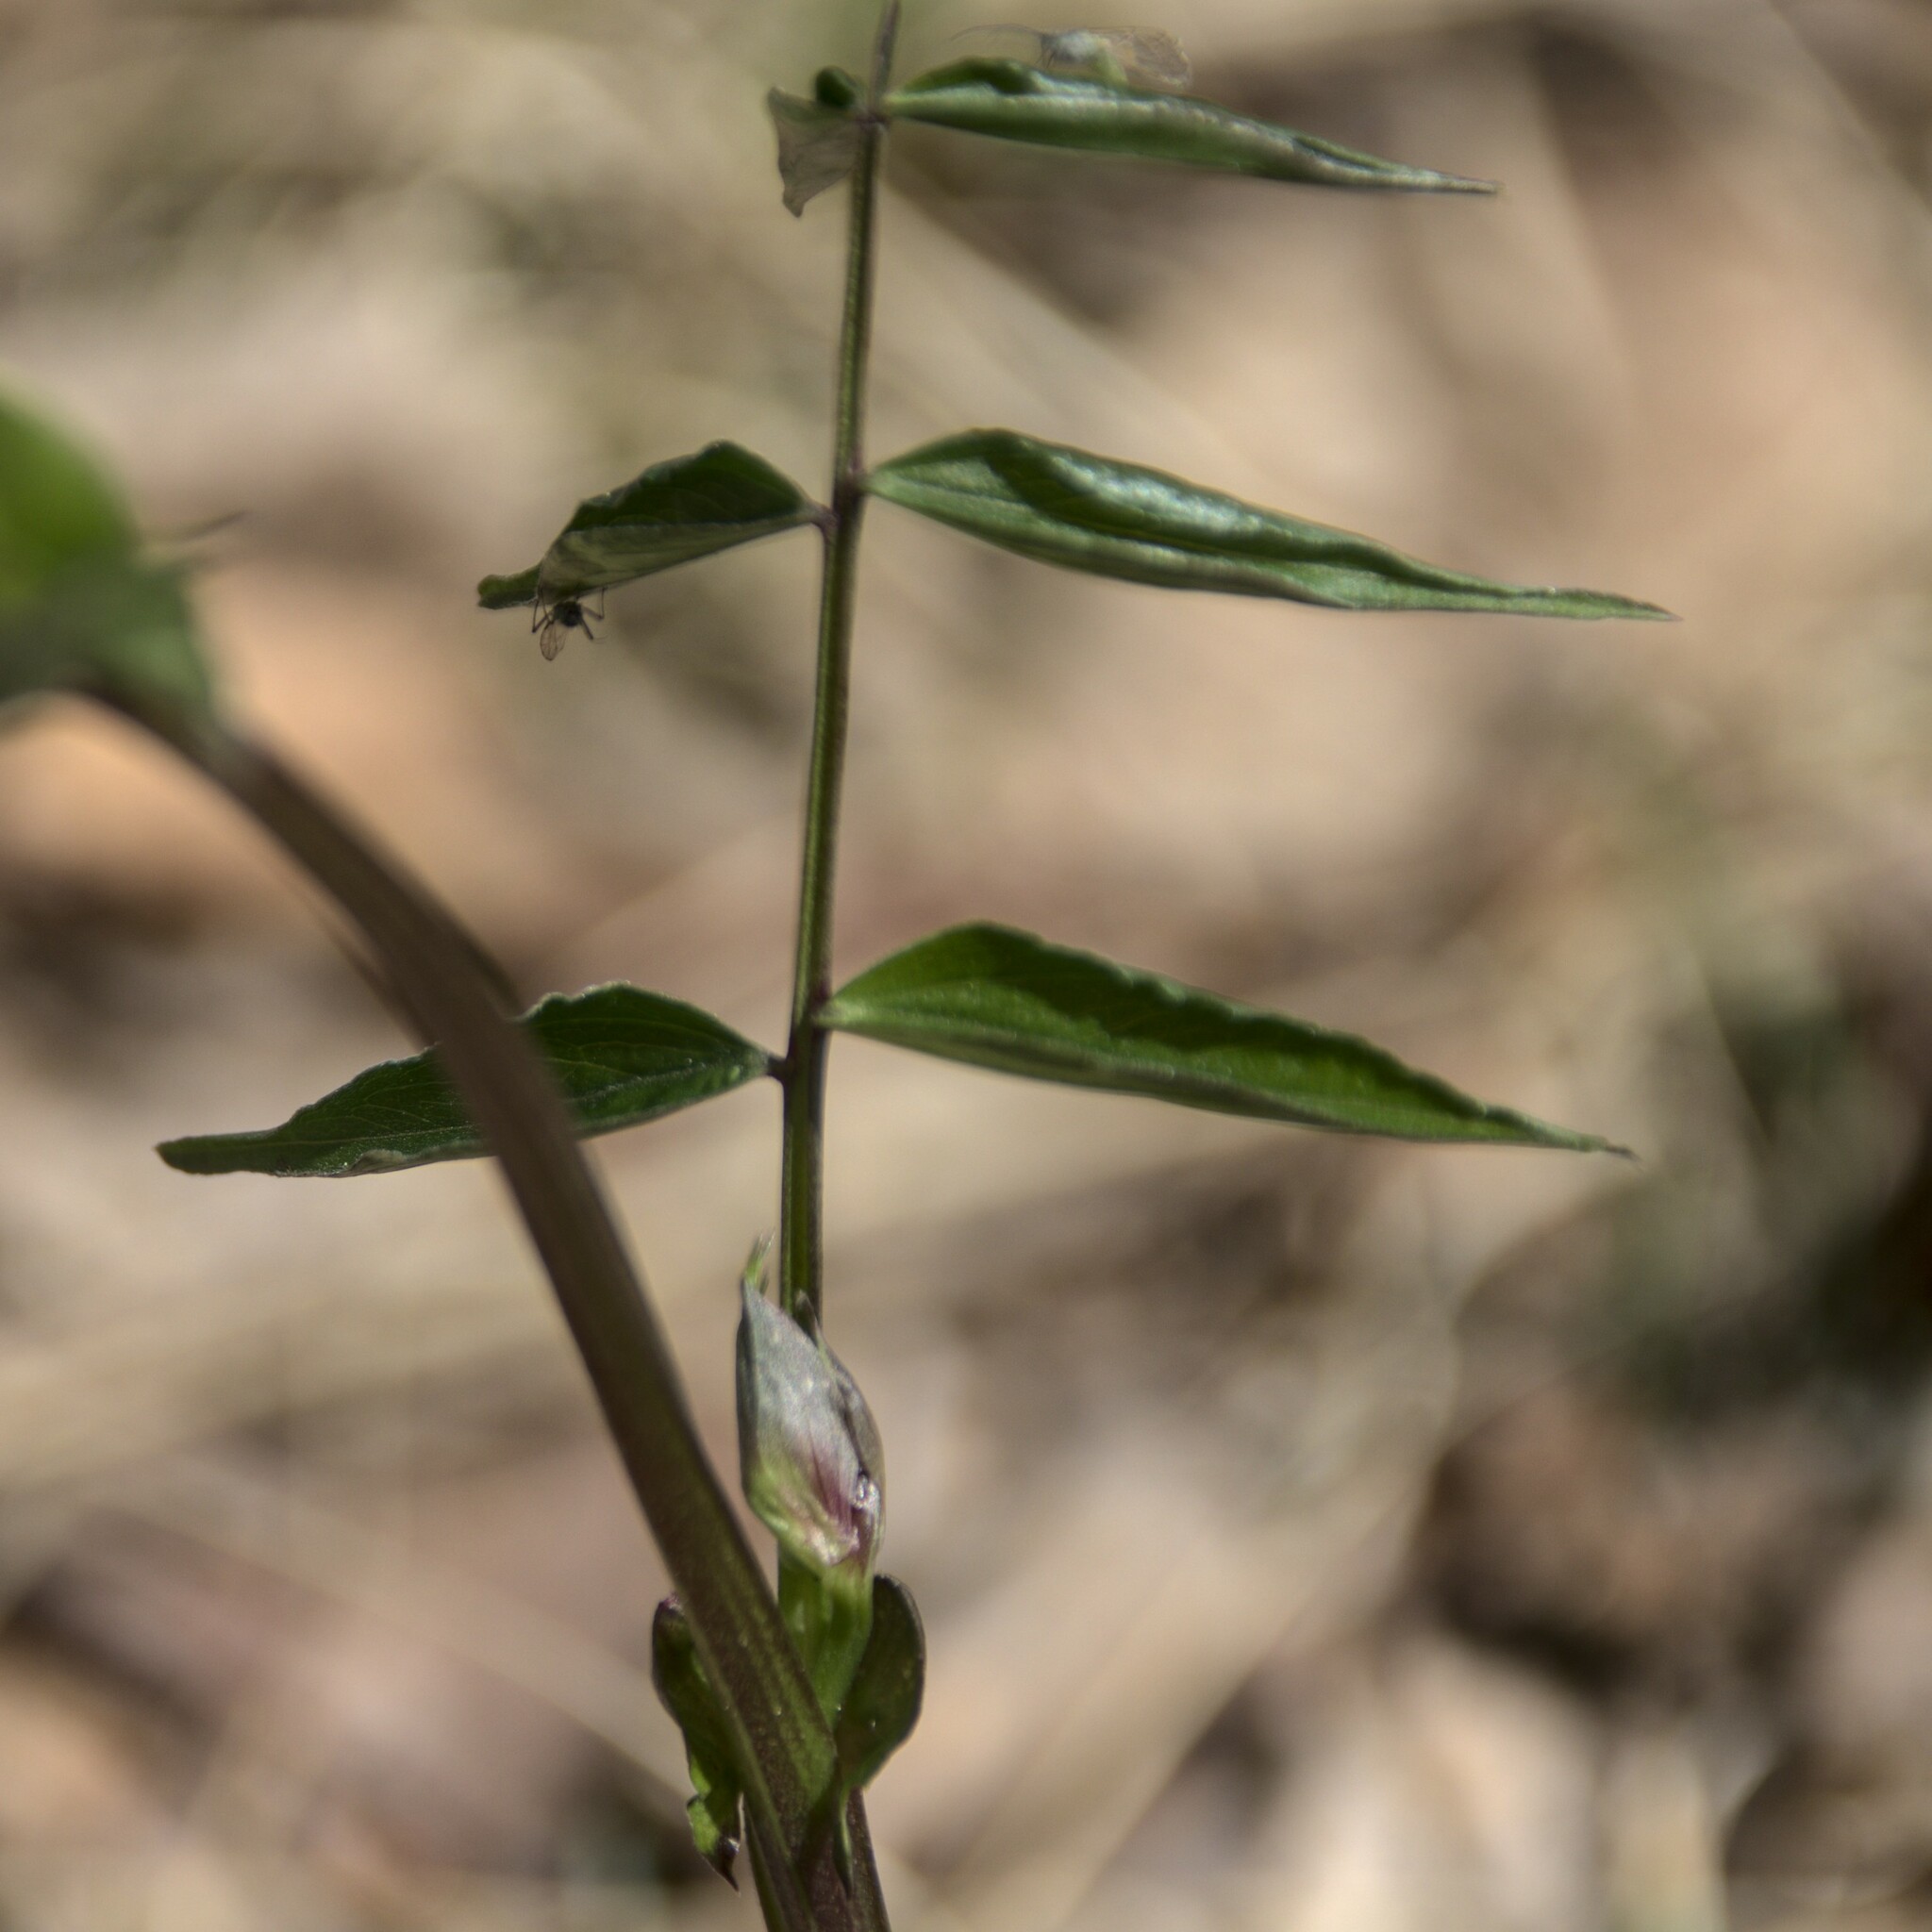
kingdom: Plantae
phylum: Tracheophyta
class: Magnoliopsida
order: Fabales
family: Fabaceae
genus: Lathyrus
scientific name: Lathyrus vernus
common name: Spring pea
